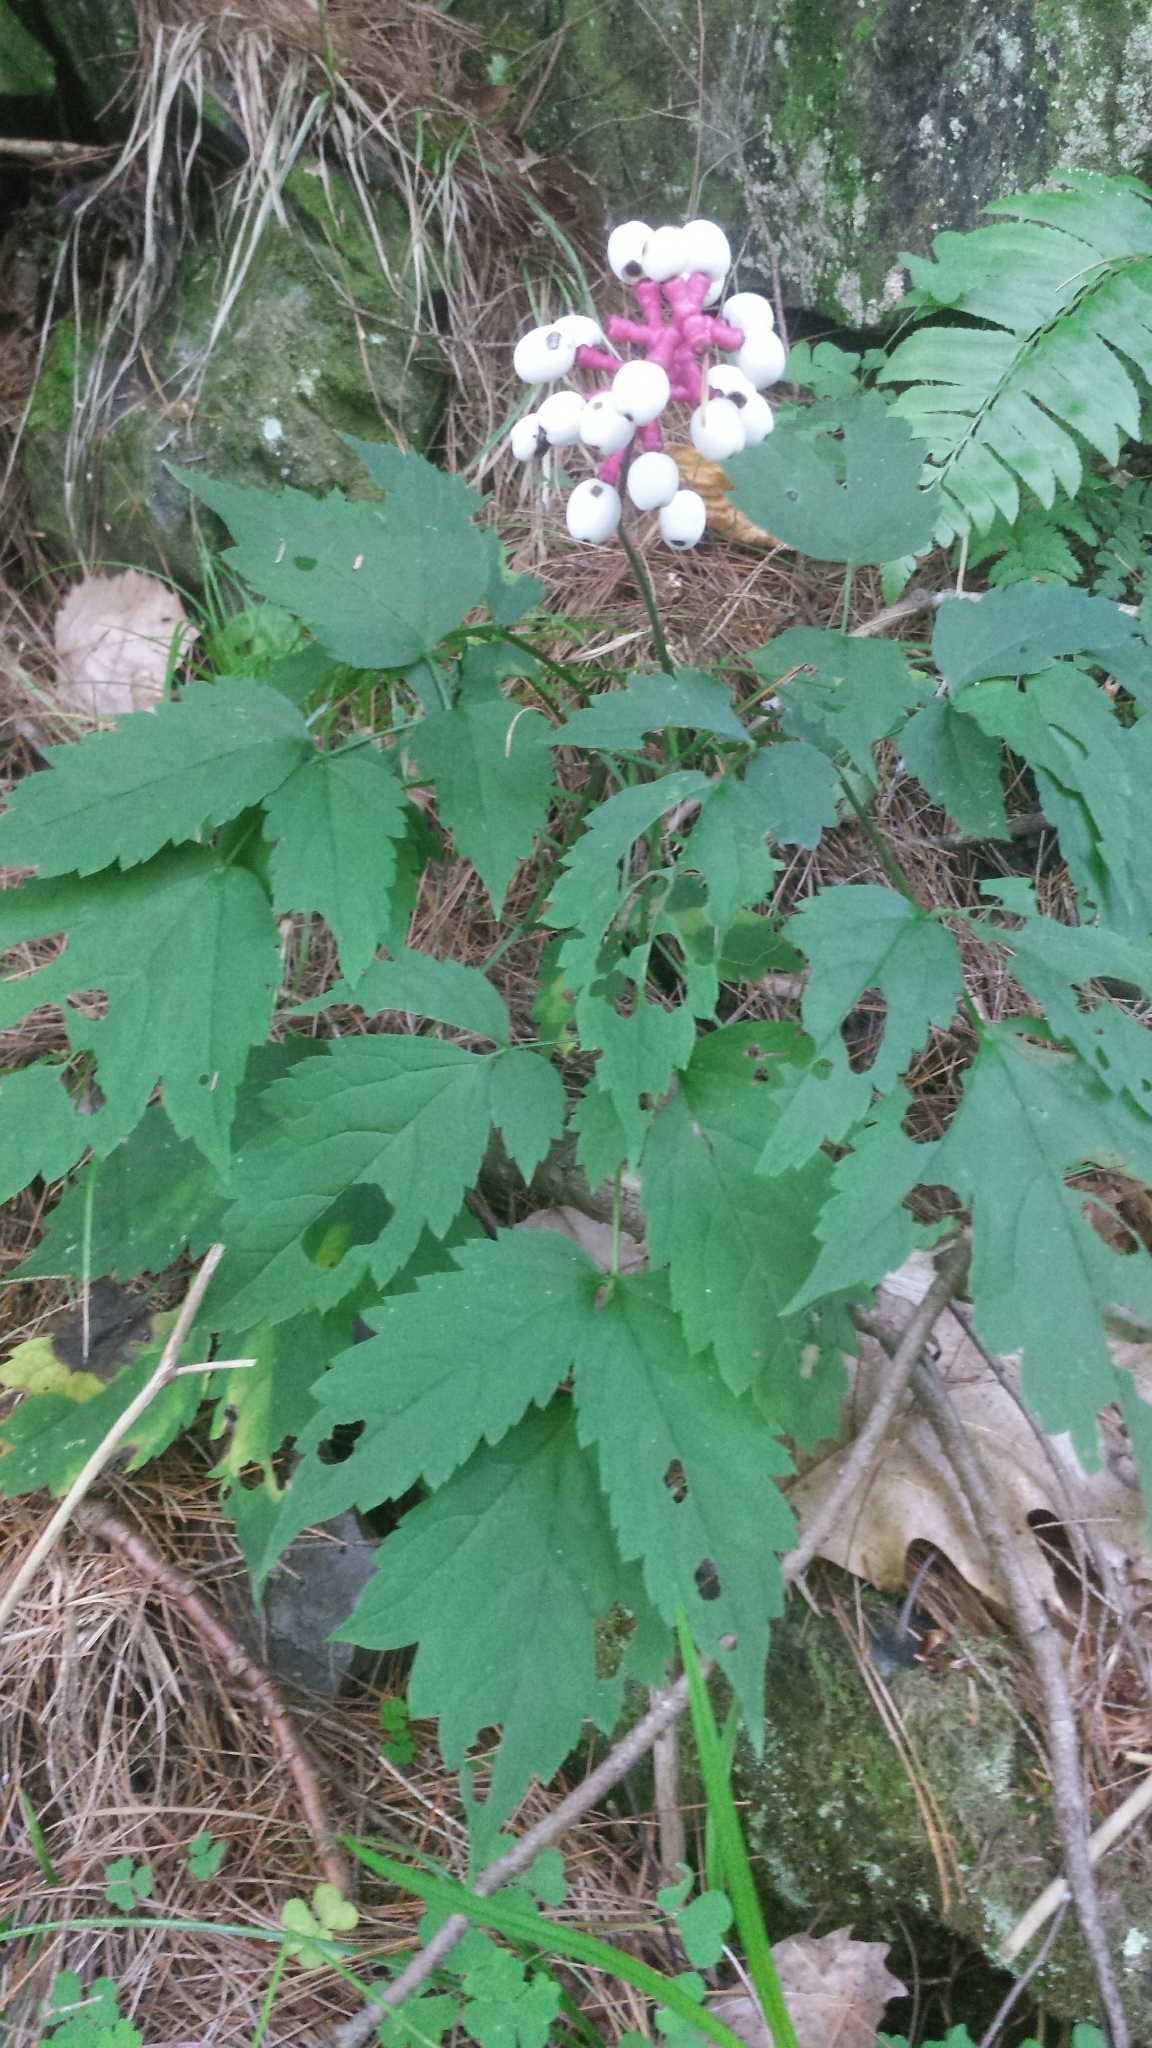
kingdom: Plantae
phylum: Tracheophyta
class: Magnoliopsida
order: Ranunculales
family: Ranunculaceae
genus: Actaea
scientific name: Actaea pachypoda
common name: Doll's-eyes
